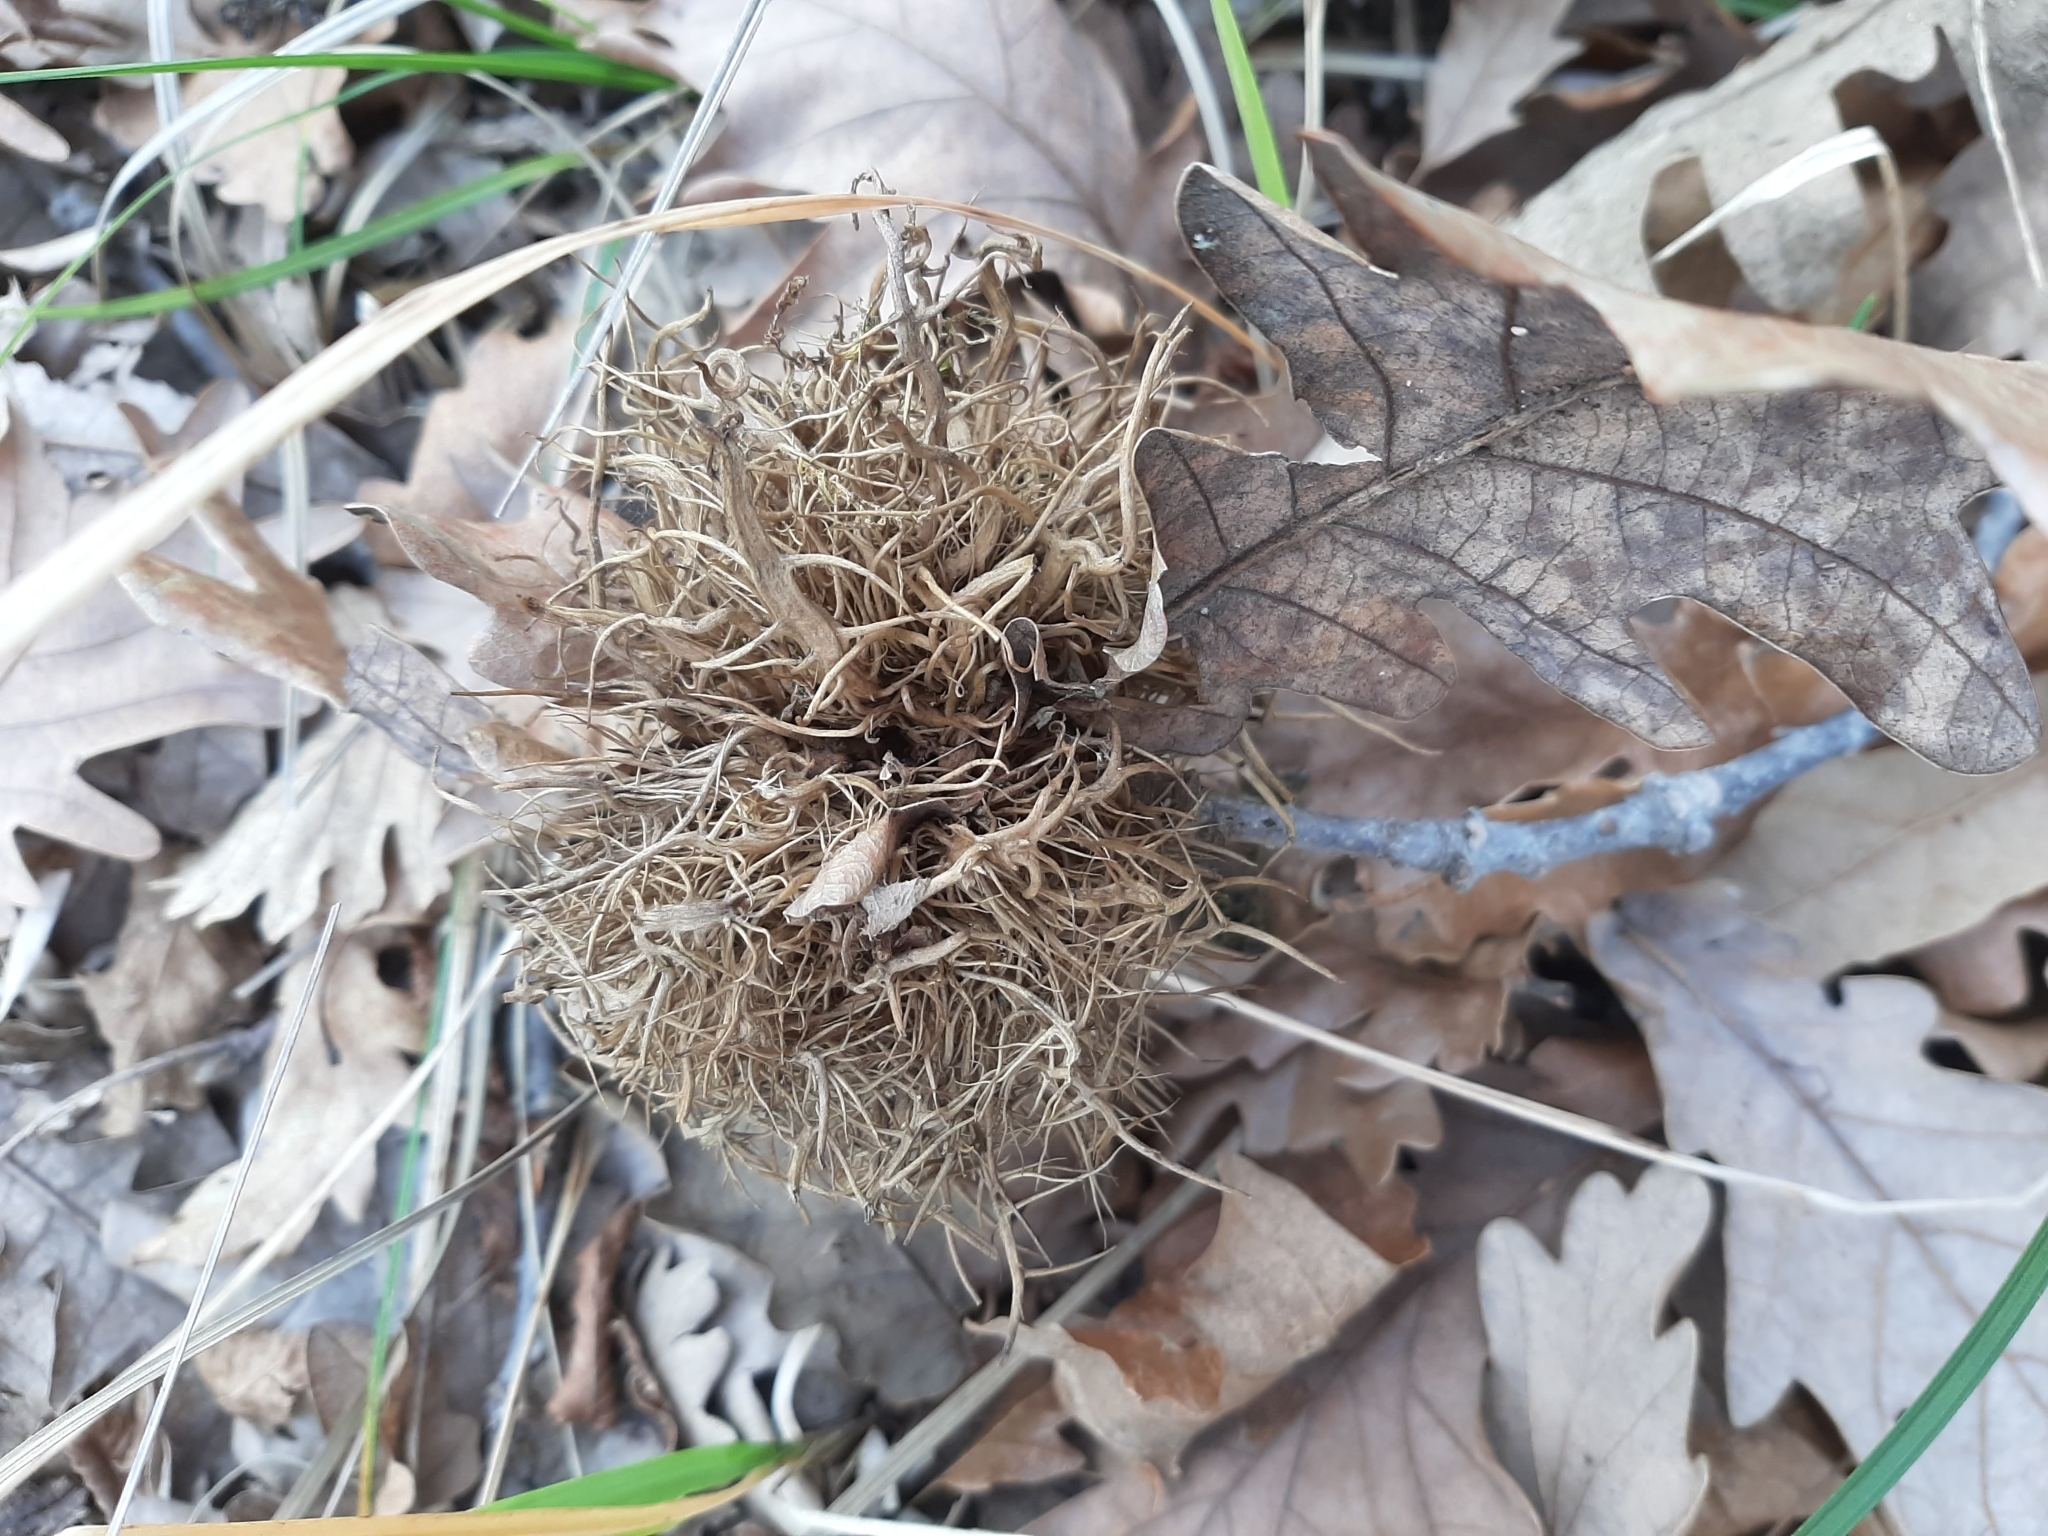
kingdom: Animalia
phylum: Arthropoda
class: Insecta
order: Hymenoptera
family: Cynipidae
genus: Andricus
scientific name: Andricus caputmedusae
